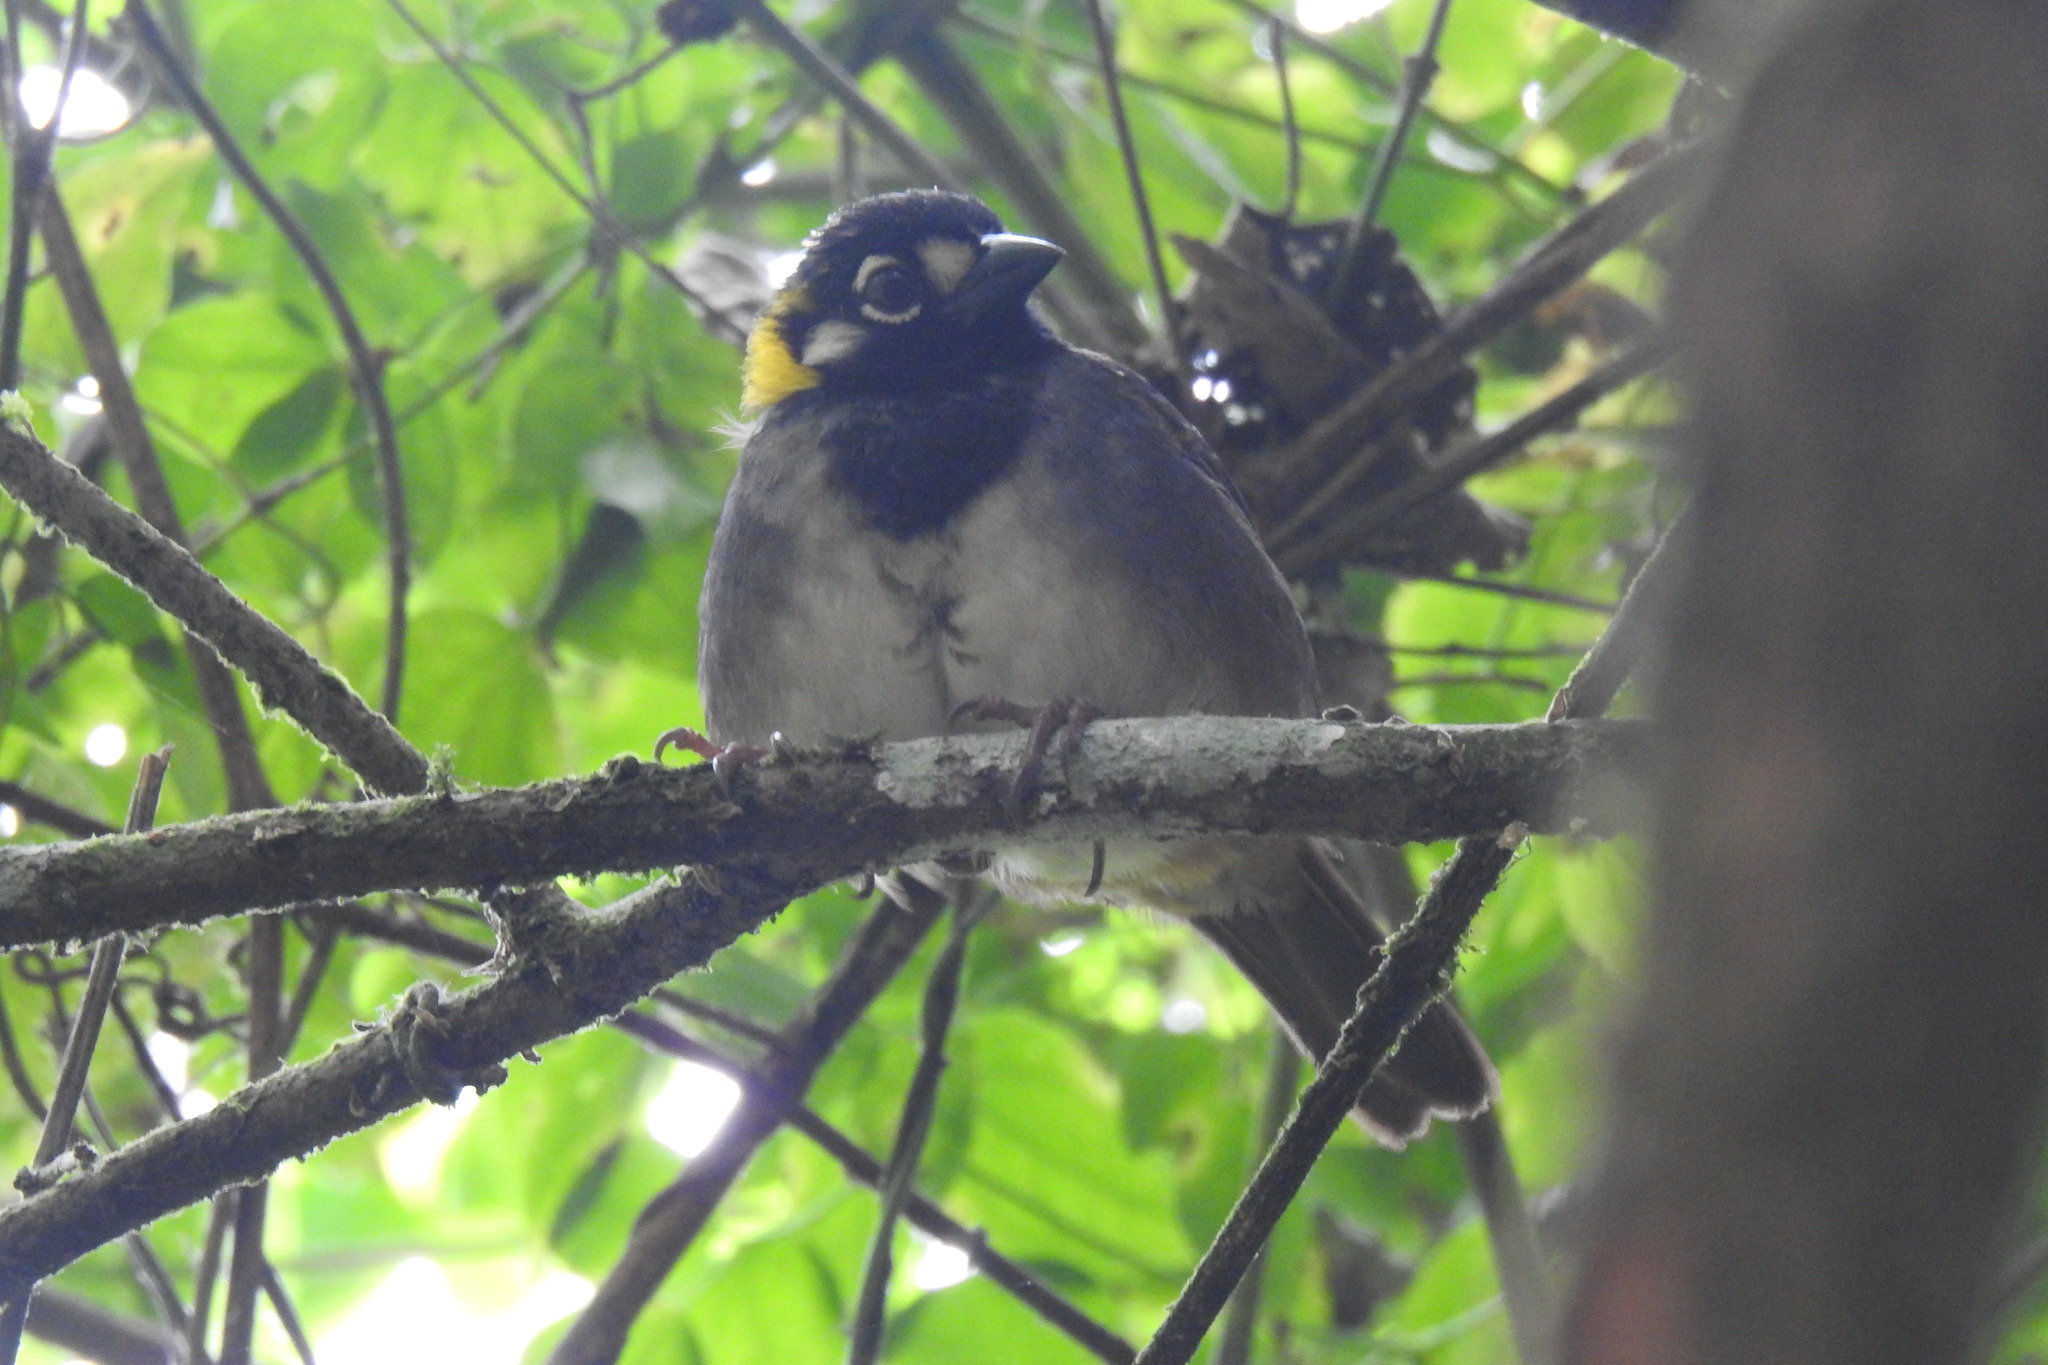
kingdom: Animalia
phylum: Chordata
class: Aves
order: Passeriformes
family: Passerellidae
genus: Melozone
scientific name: Melozone leucotis
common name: White-eared ground-sparrow
